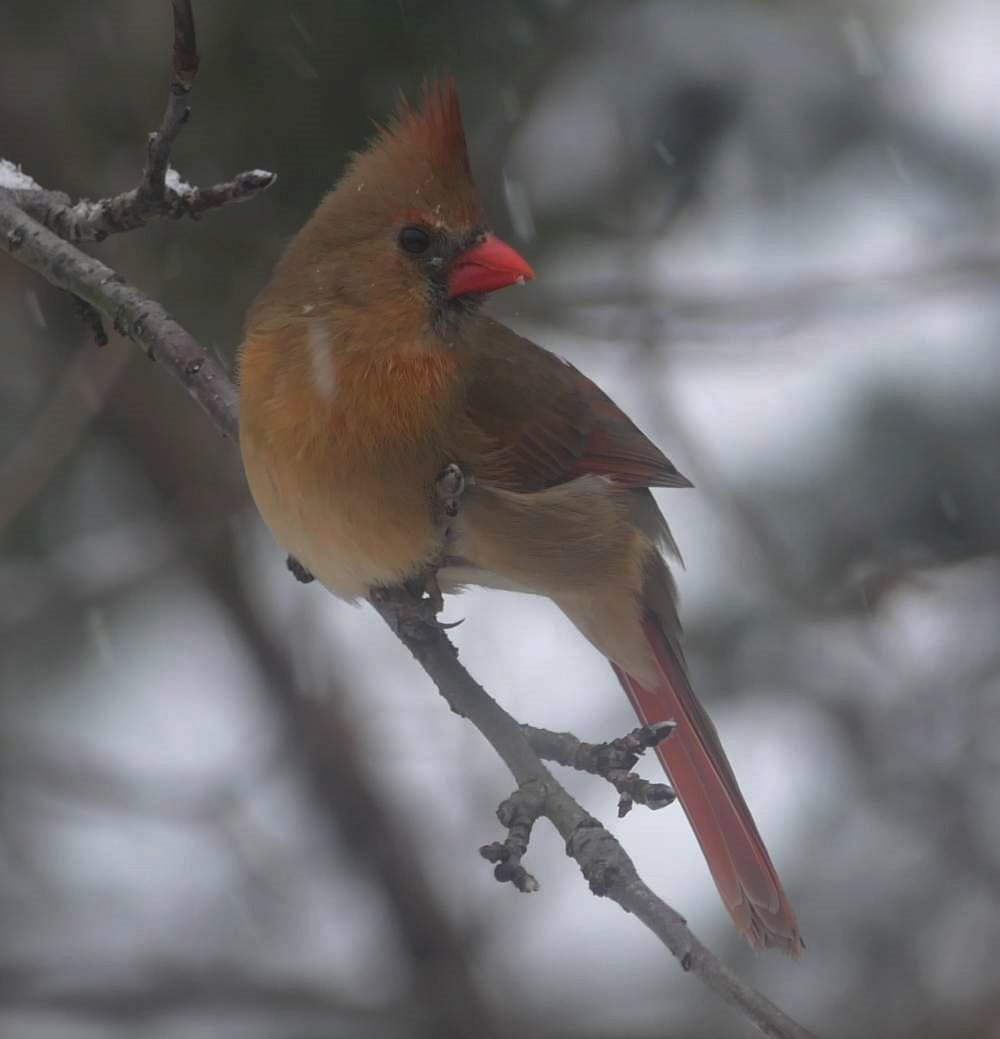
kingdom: Animalia
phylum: Chordata
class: Aves
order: Passeriformes
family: Cardinalidae
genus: Cardinalis
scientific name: Cardinalis cardinalis
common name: Northern cardinal
